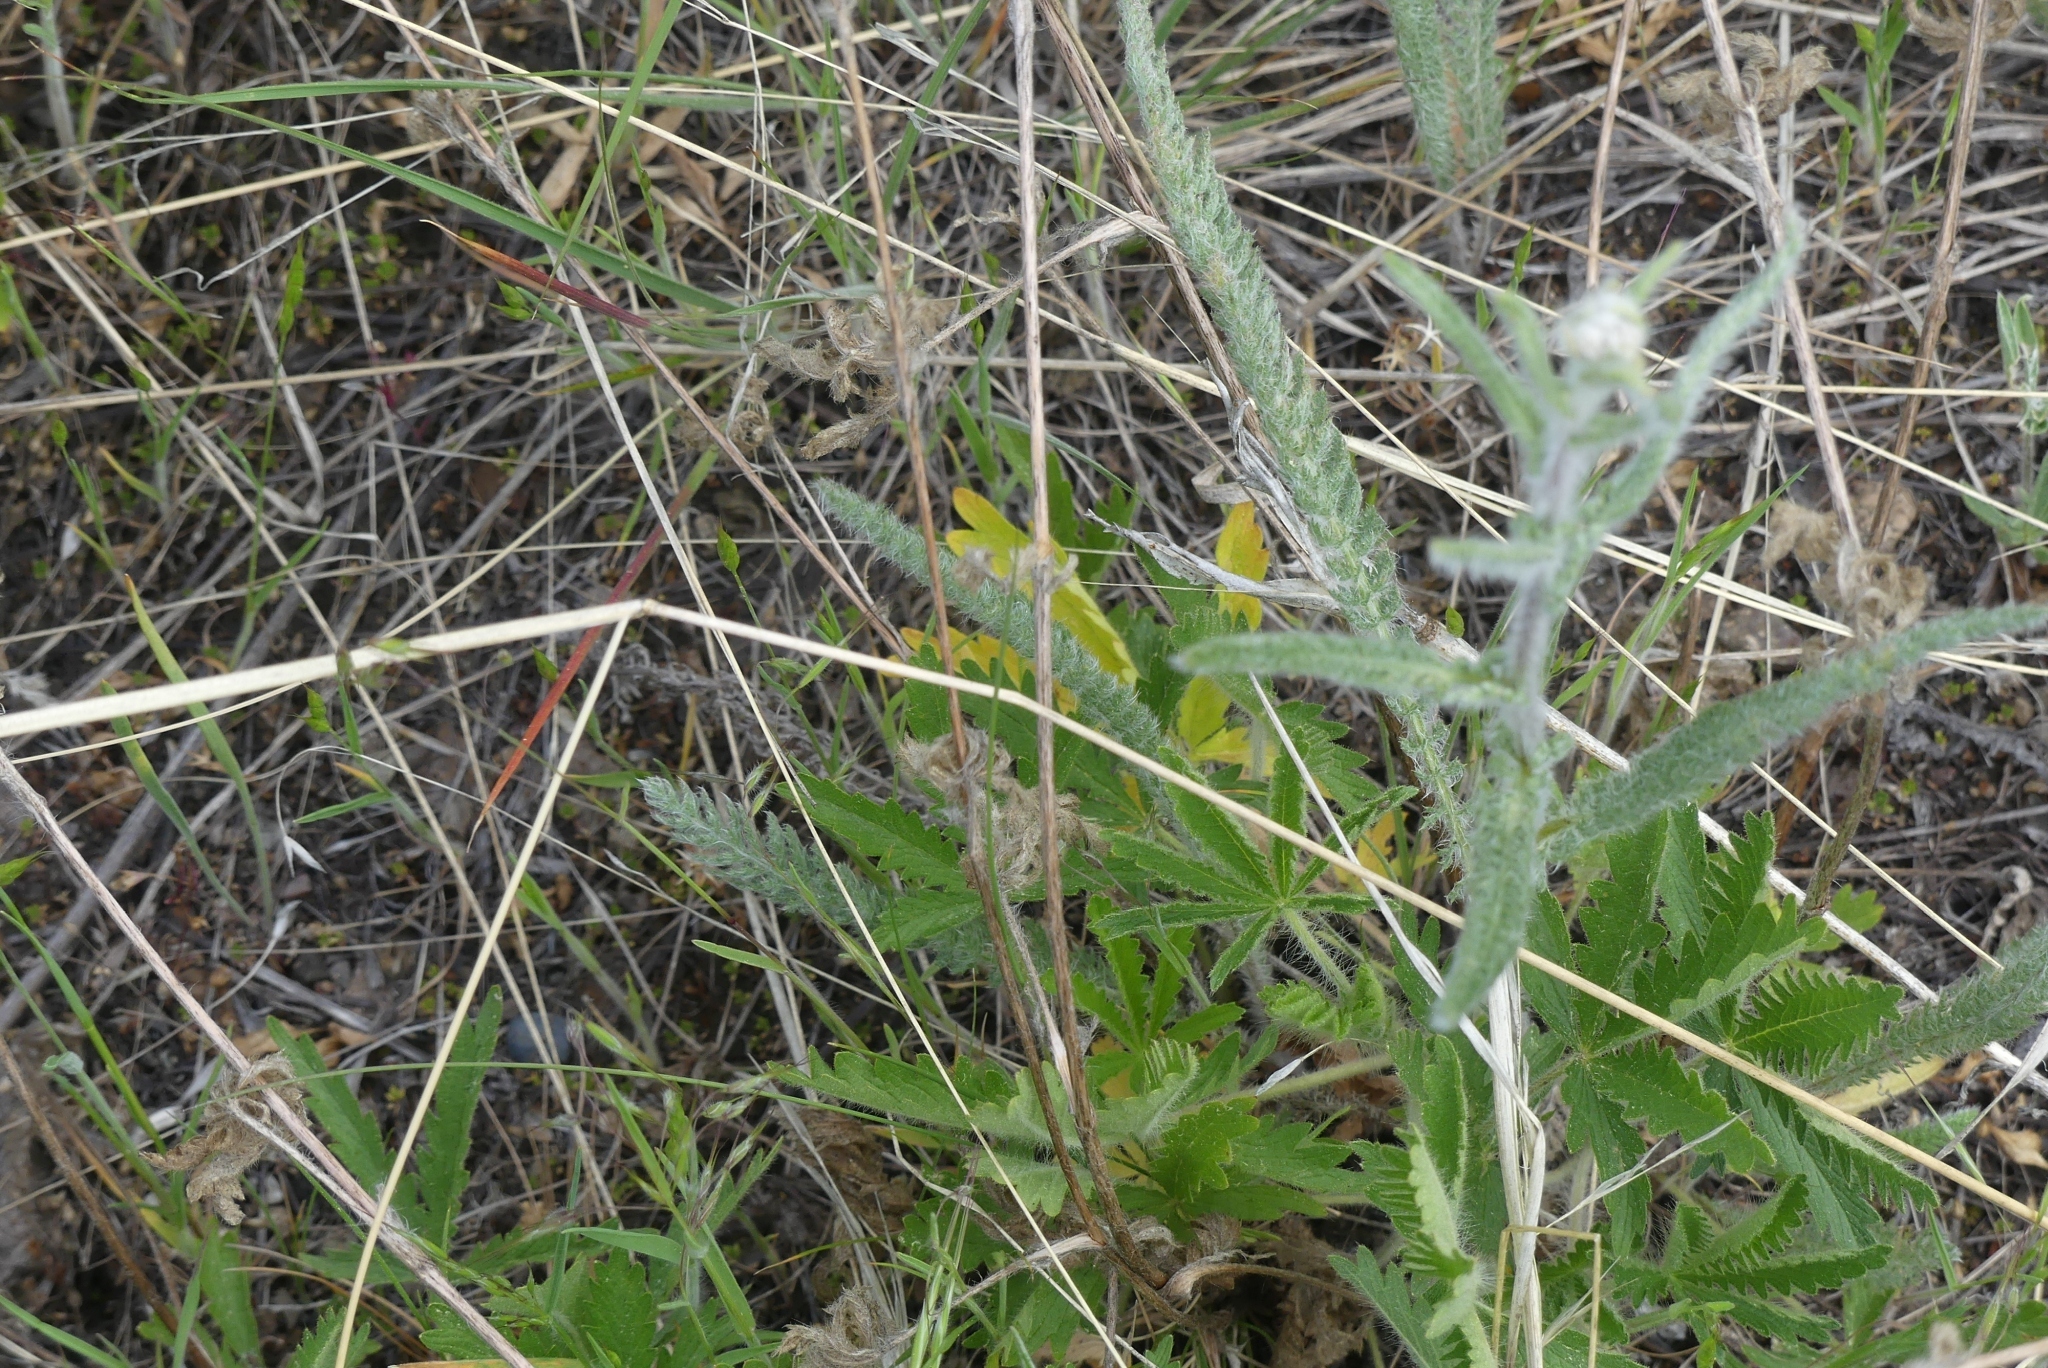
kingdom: Plantae
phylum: Tracheophyta
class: Magnoliopsida
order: Asterales
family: Asteraceae
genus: Achillea
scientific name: Achillea millefolium
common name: Yarrow
